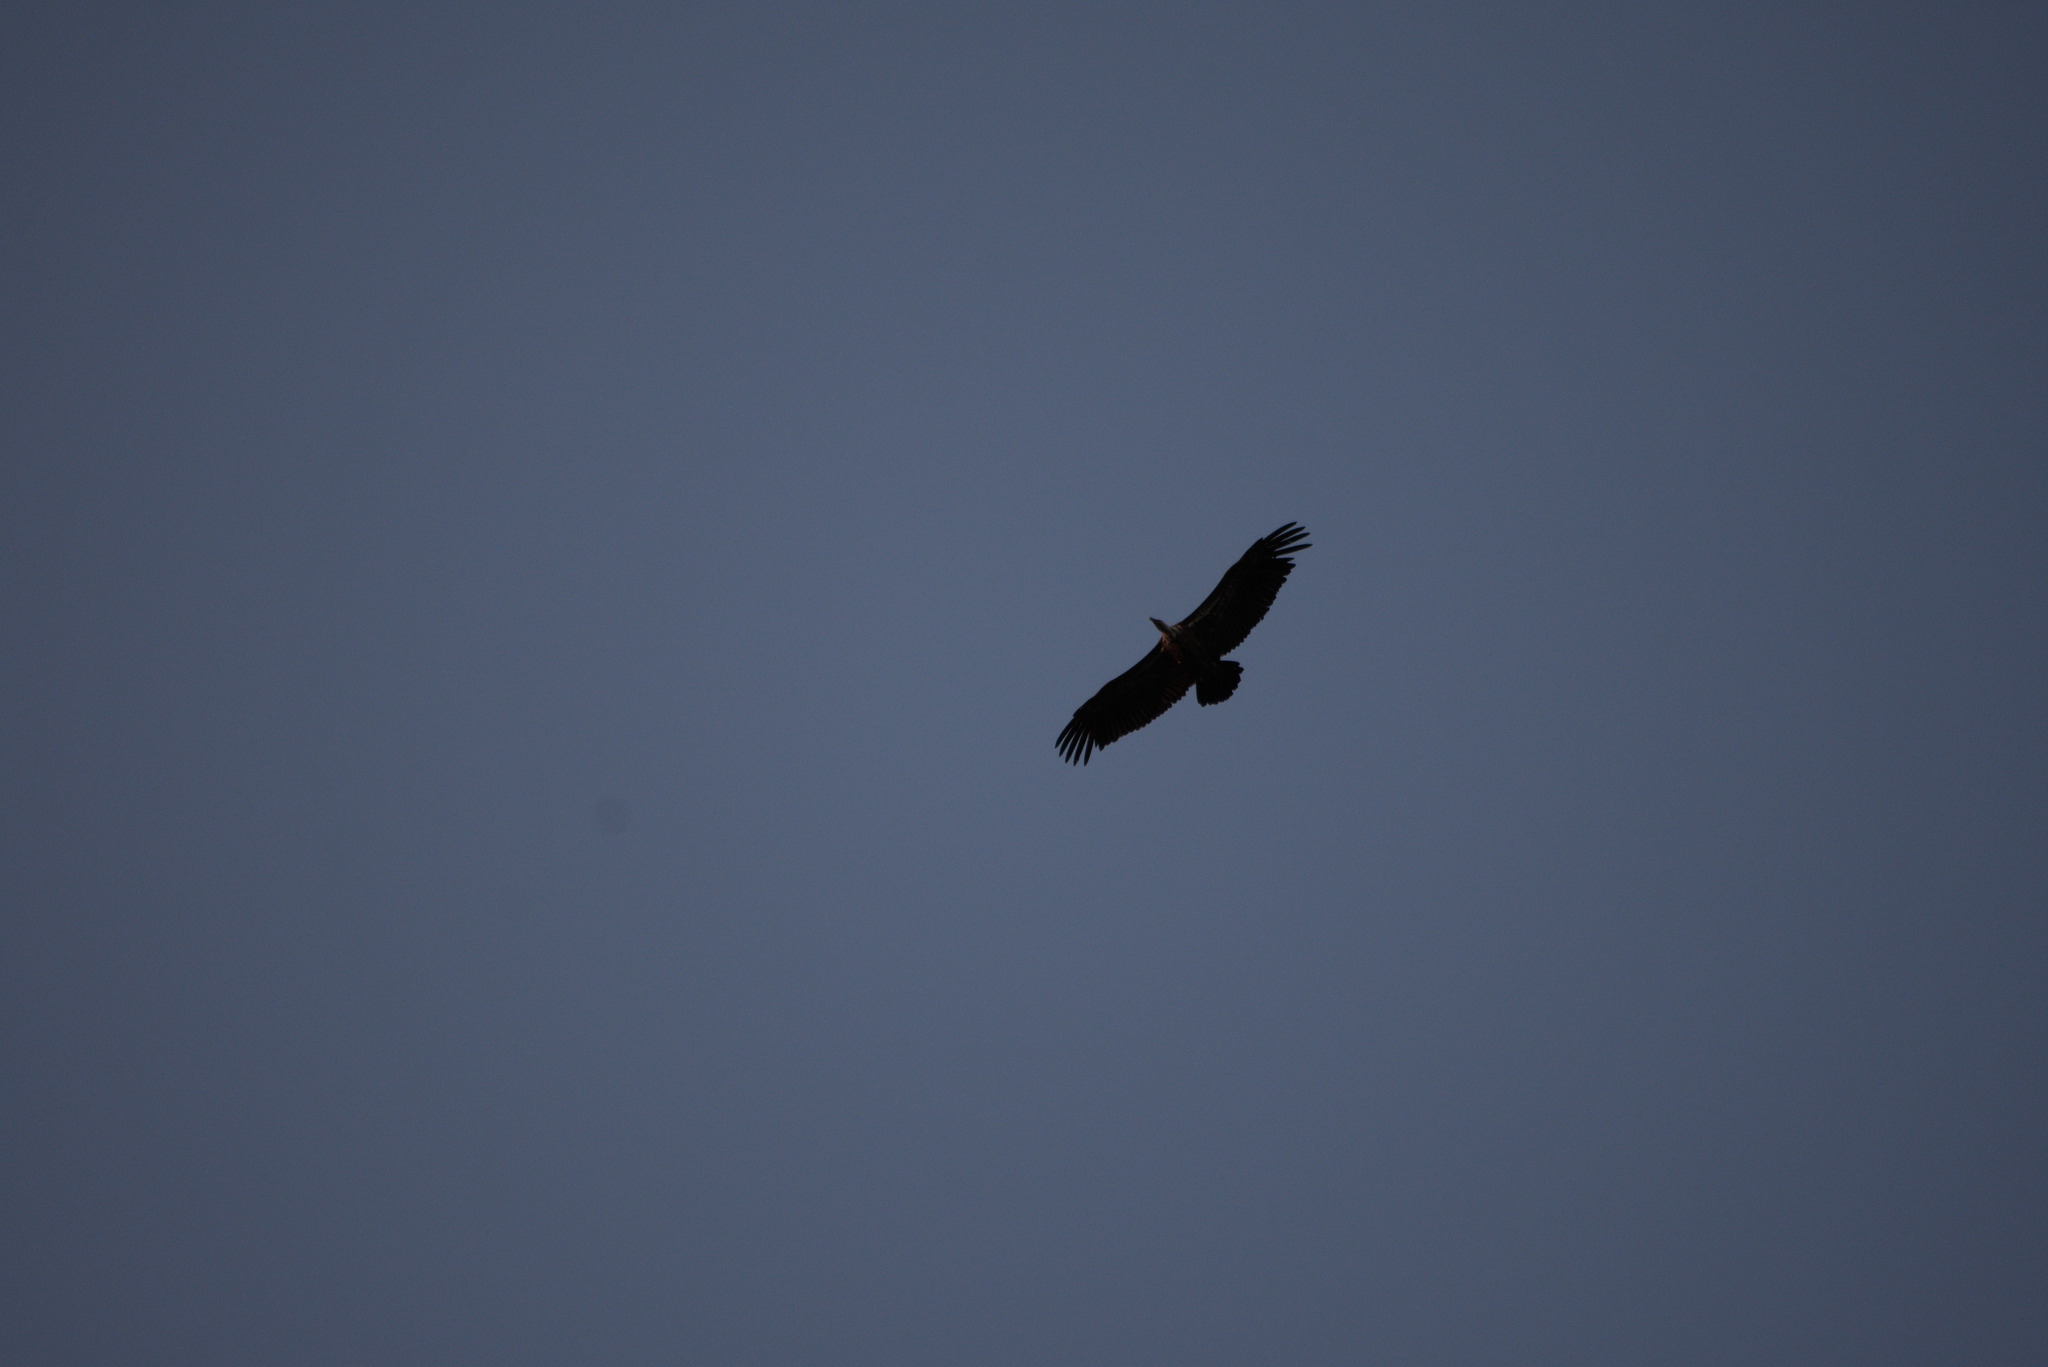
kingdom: Animalia
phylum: Chordata
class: Aves
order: Accipitriformes
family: Accipitridae
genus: Gyps
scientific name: Gyps fulvus
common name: Griffon vulture
